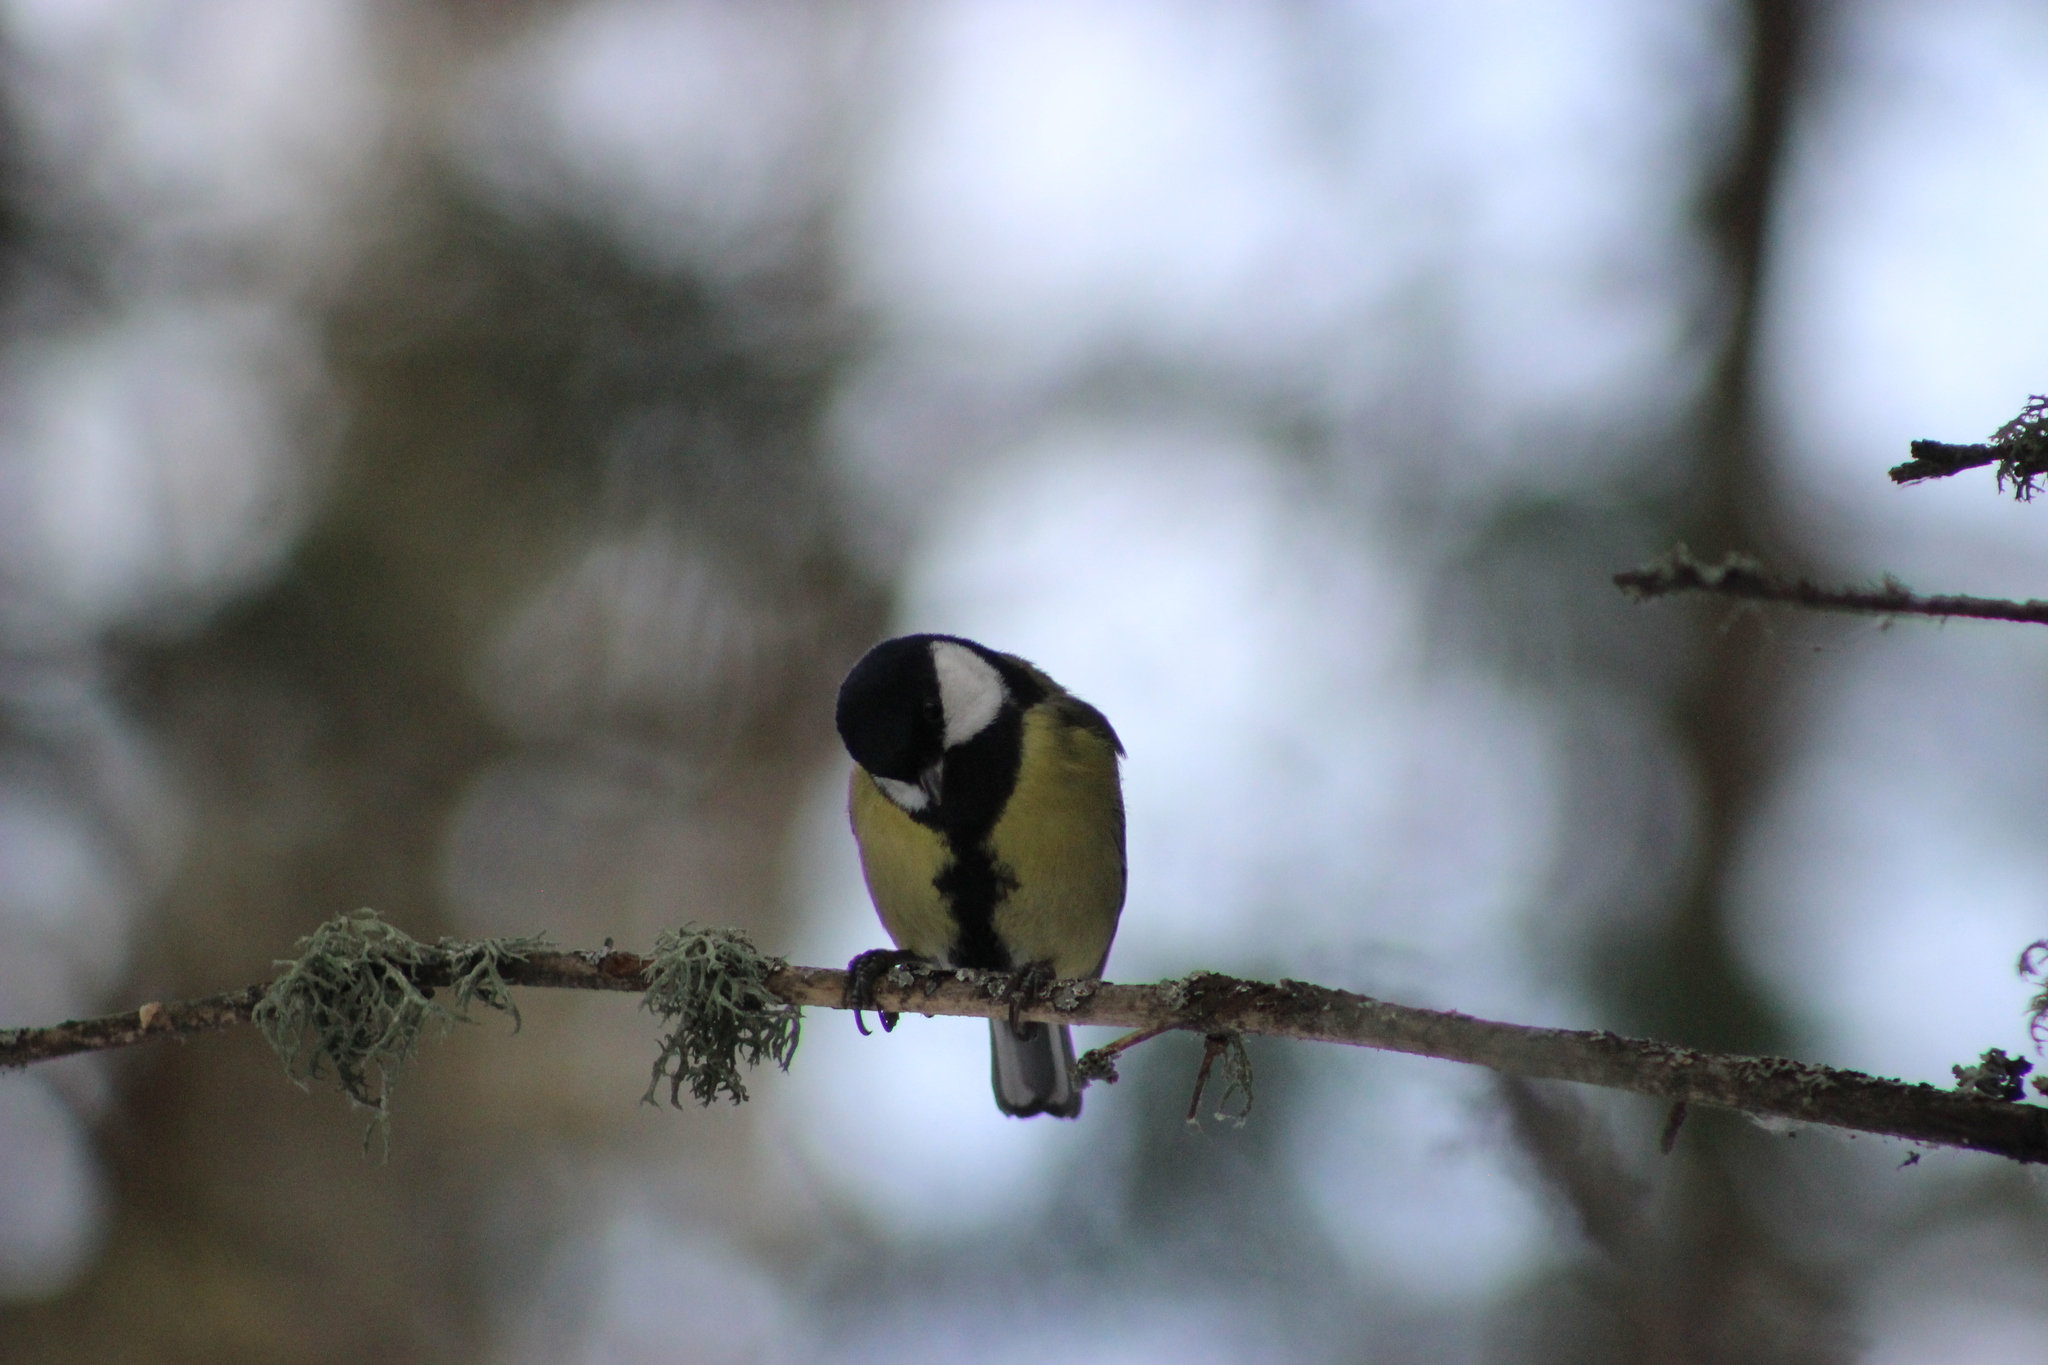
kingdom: Animalia
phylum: Chordata
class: Aves
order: Passeriformes
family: Paridae
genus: Parus
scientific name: Parus major
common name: Great tit
